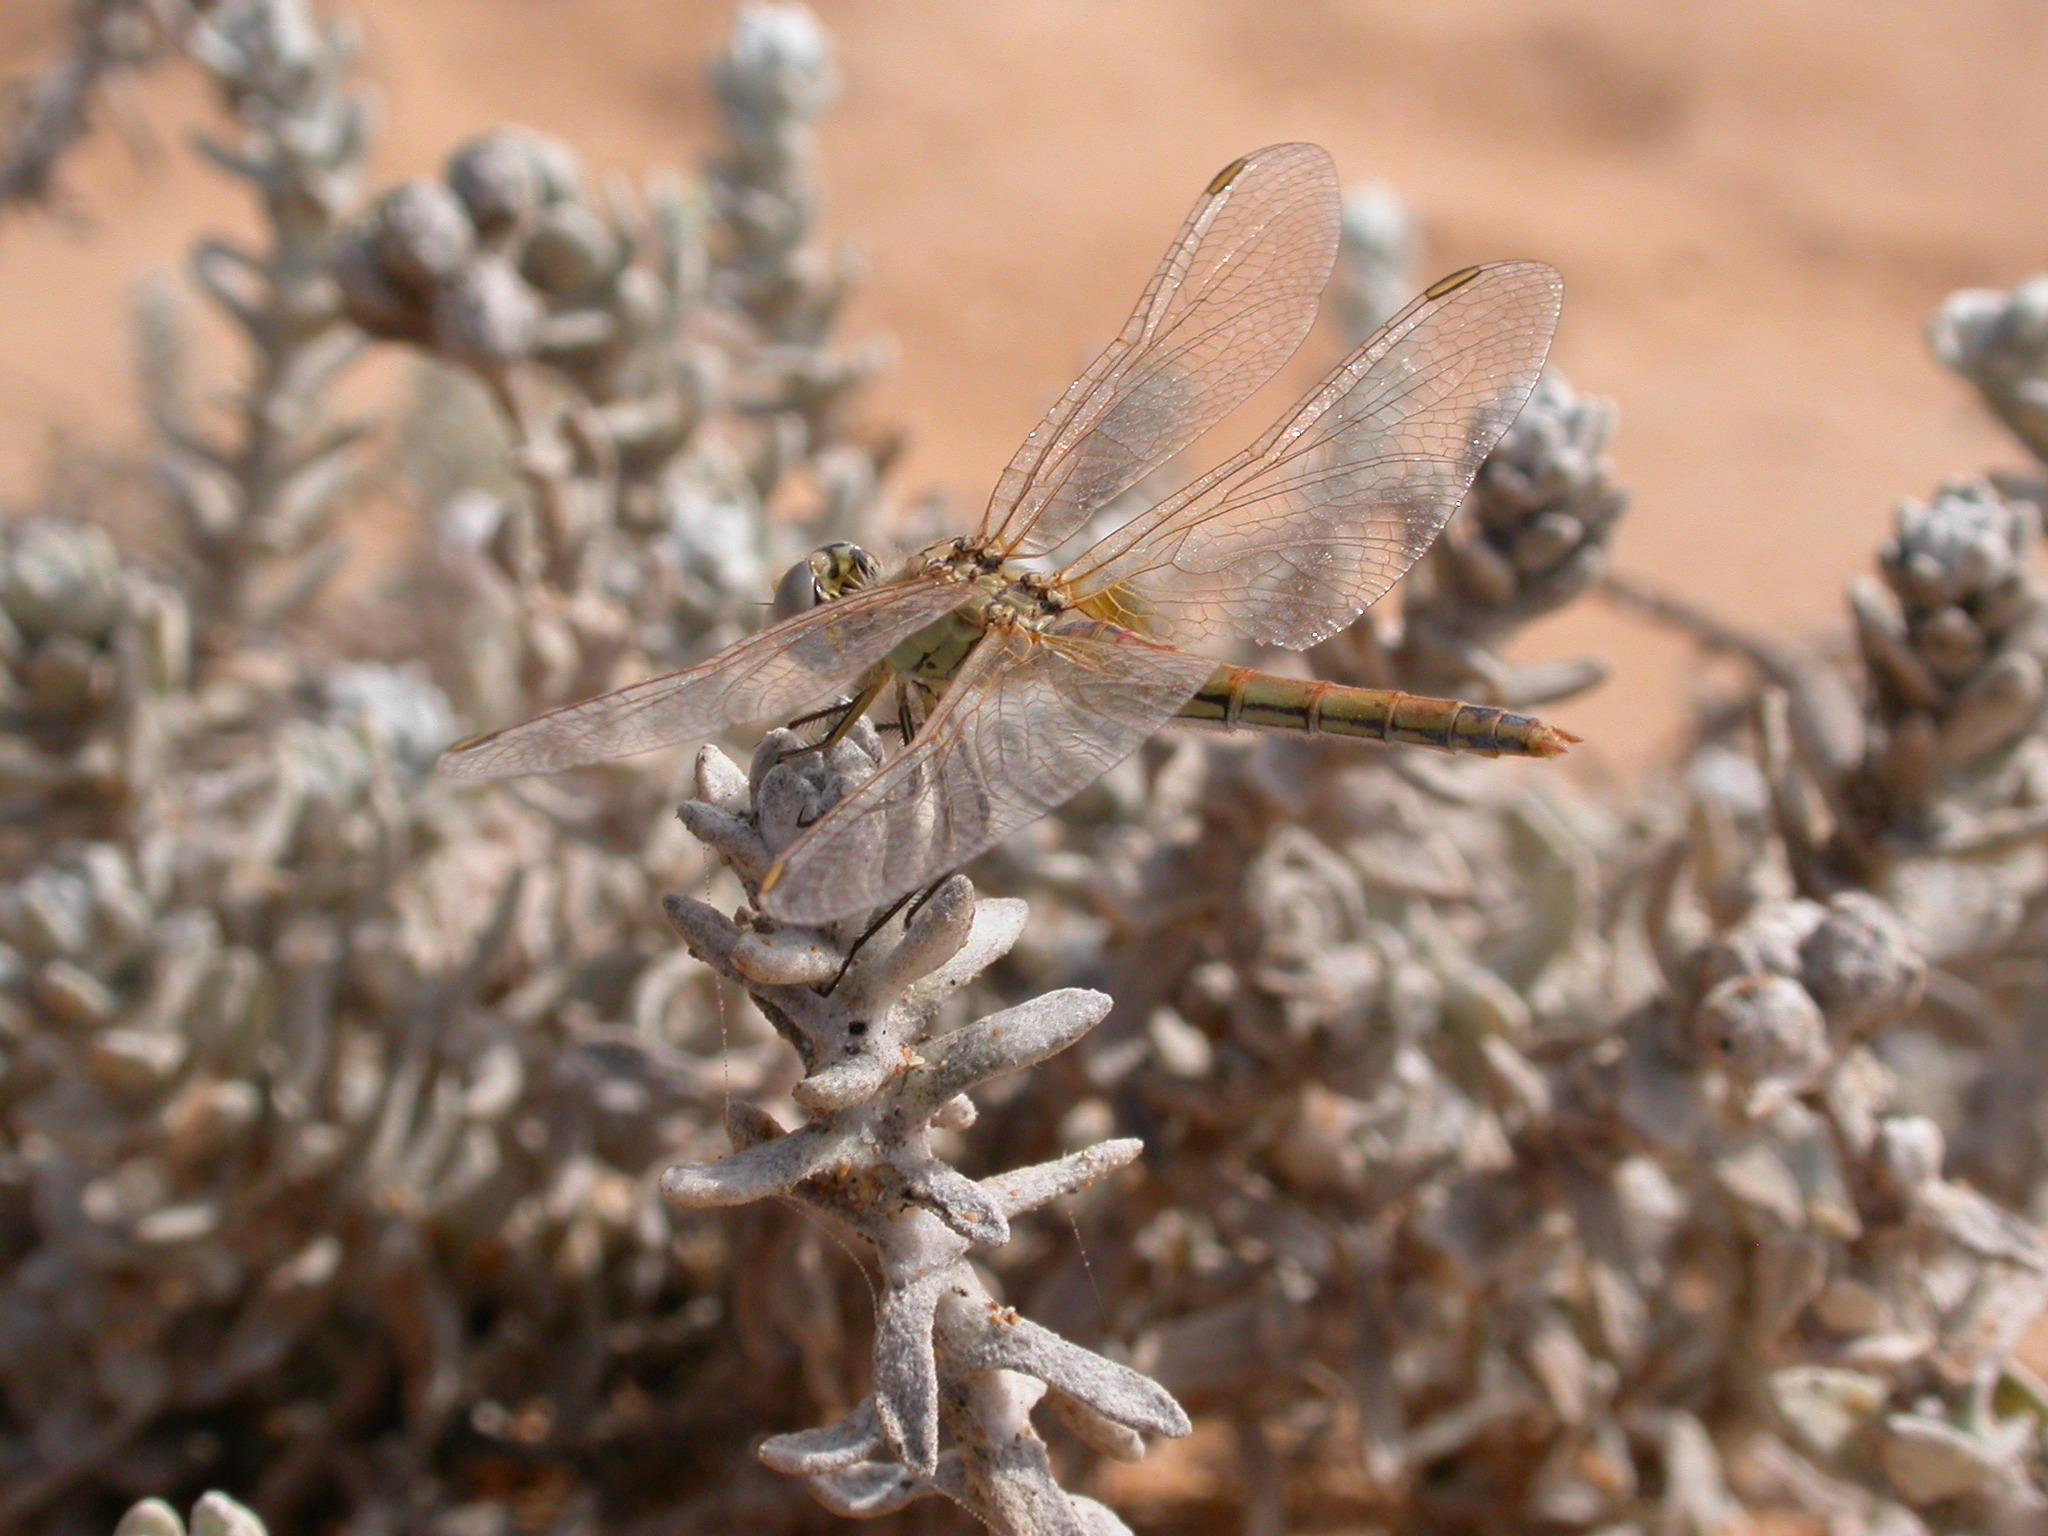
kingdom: Animalia
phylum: Arthropoda
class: Insecta
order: Odonata
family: Libellulidae
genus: Sympetrum
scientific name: Sympetrum fonscolombii
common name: Red-veined darter
